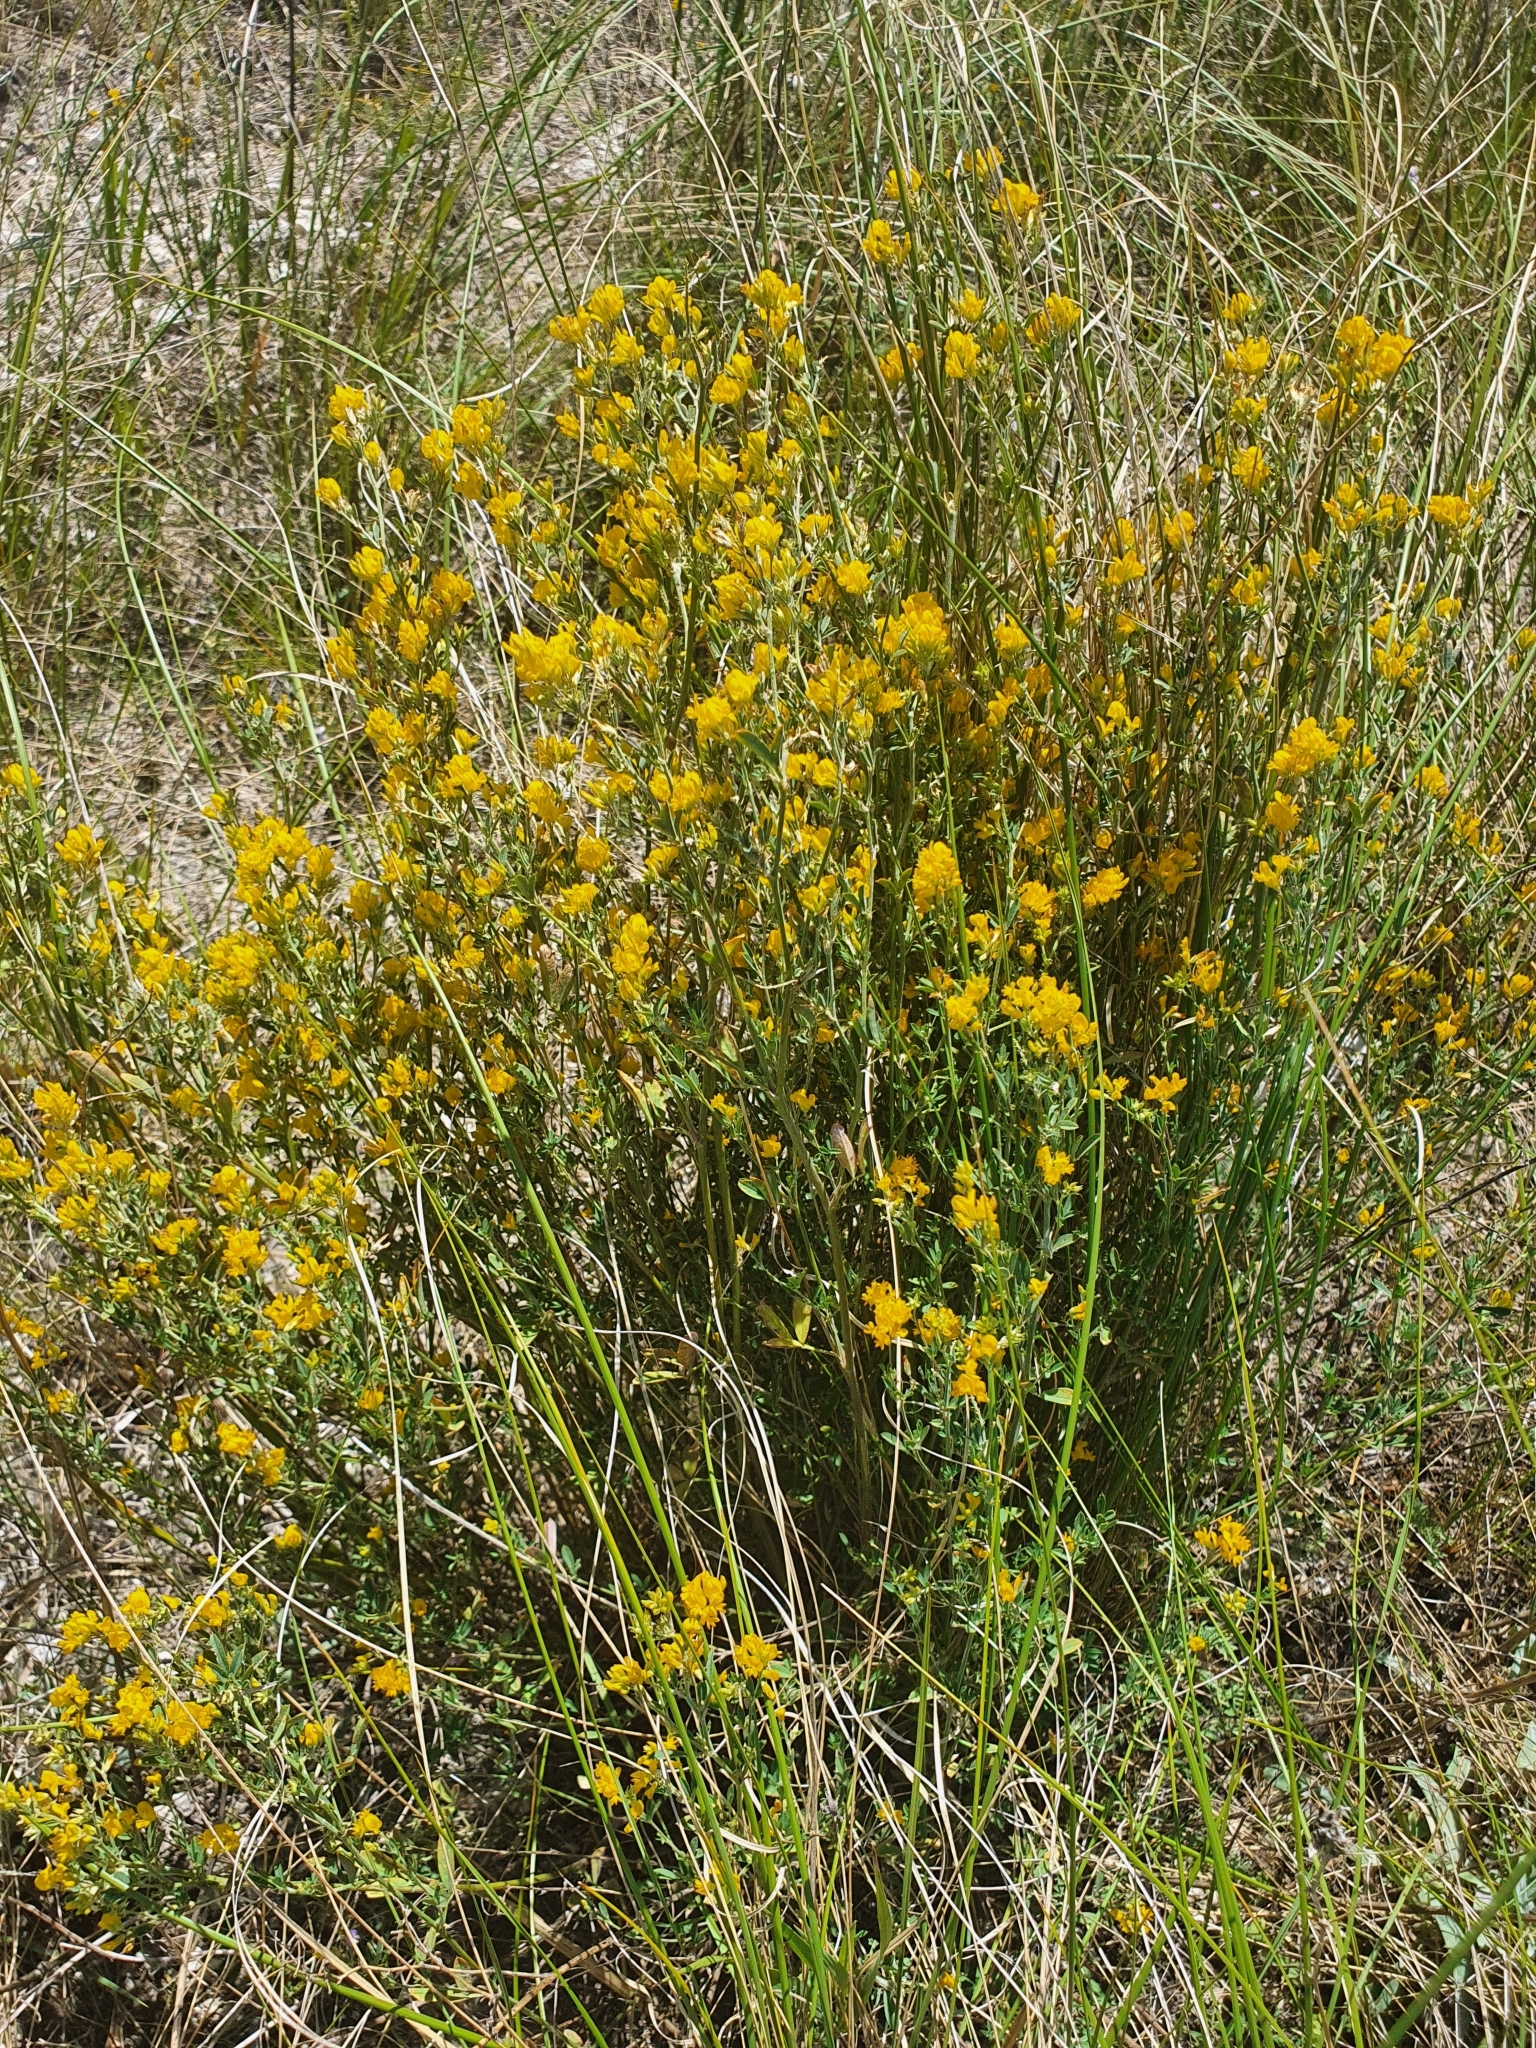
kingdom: Plantae
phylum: Tracheophyta
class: Magnoliopsida
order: Fabales
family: Fabaceae
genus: Medicago
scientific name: Medicago falcata
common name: Sickle medick
